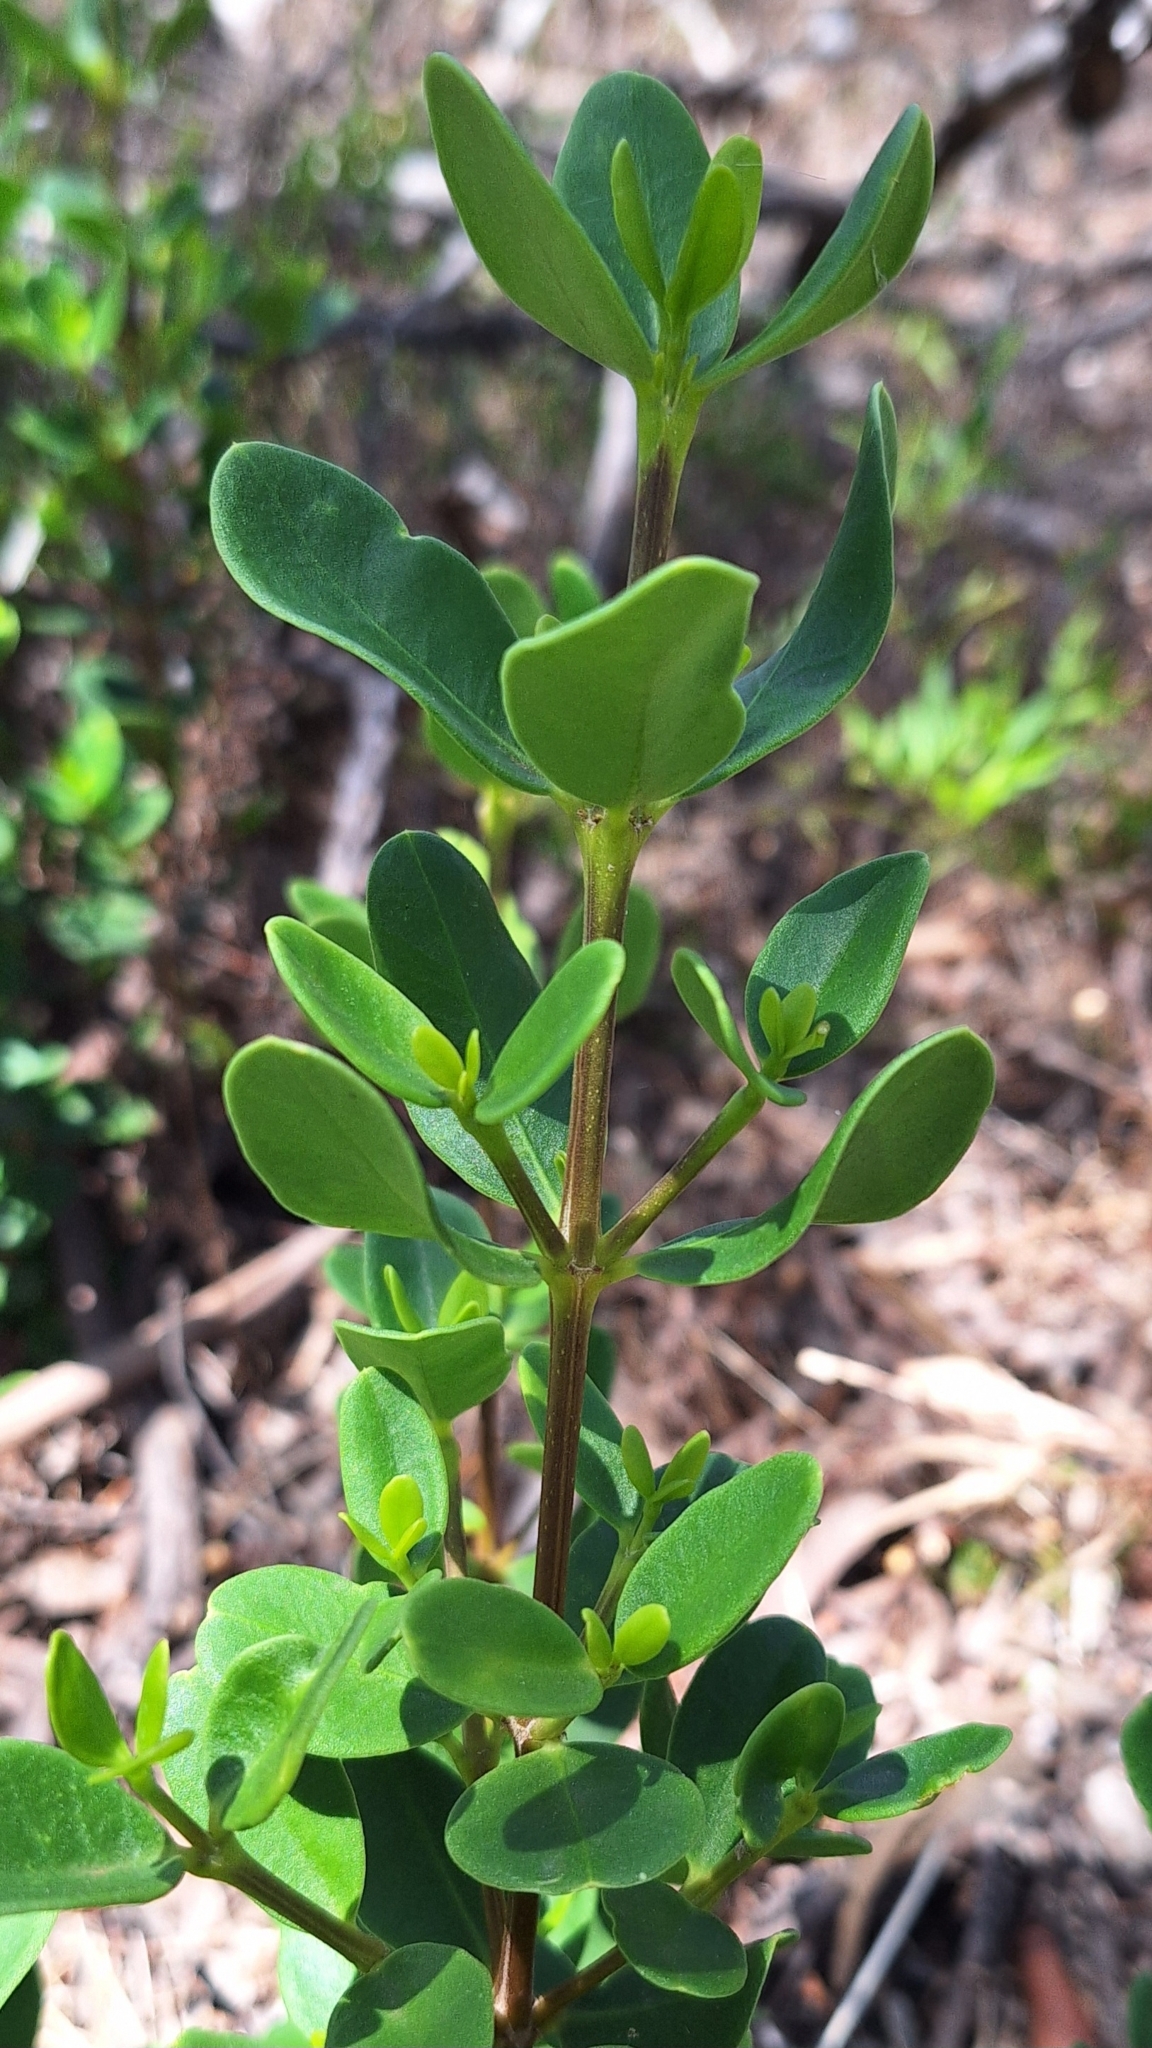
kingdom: Plantae
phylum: Tracheophyta
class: Magnoliopsida
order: Gentianales
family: Apocynaceae
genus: Alyxia
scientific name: Alyxia buxifolia
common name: Dysentery-bush
